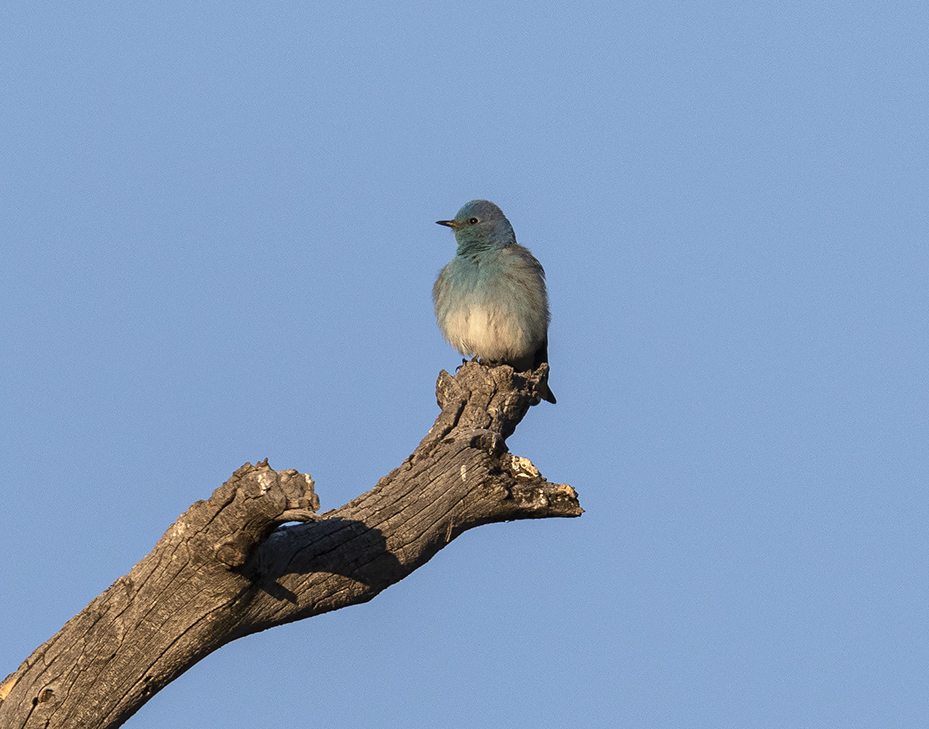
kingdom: Animalia
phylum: Chordata
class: Aves
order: Passeriformes
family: Turdidae
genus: Sialia
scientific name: Sialia currucoides
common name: Mountain bluebird
